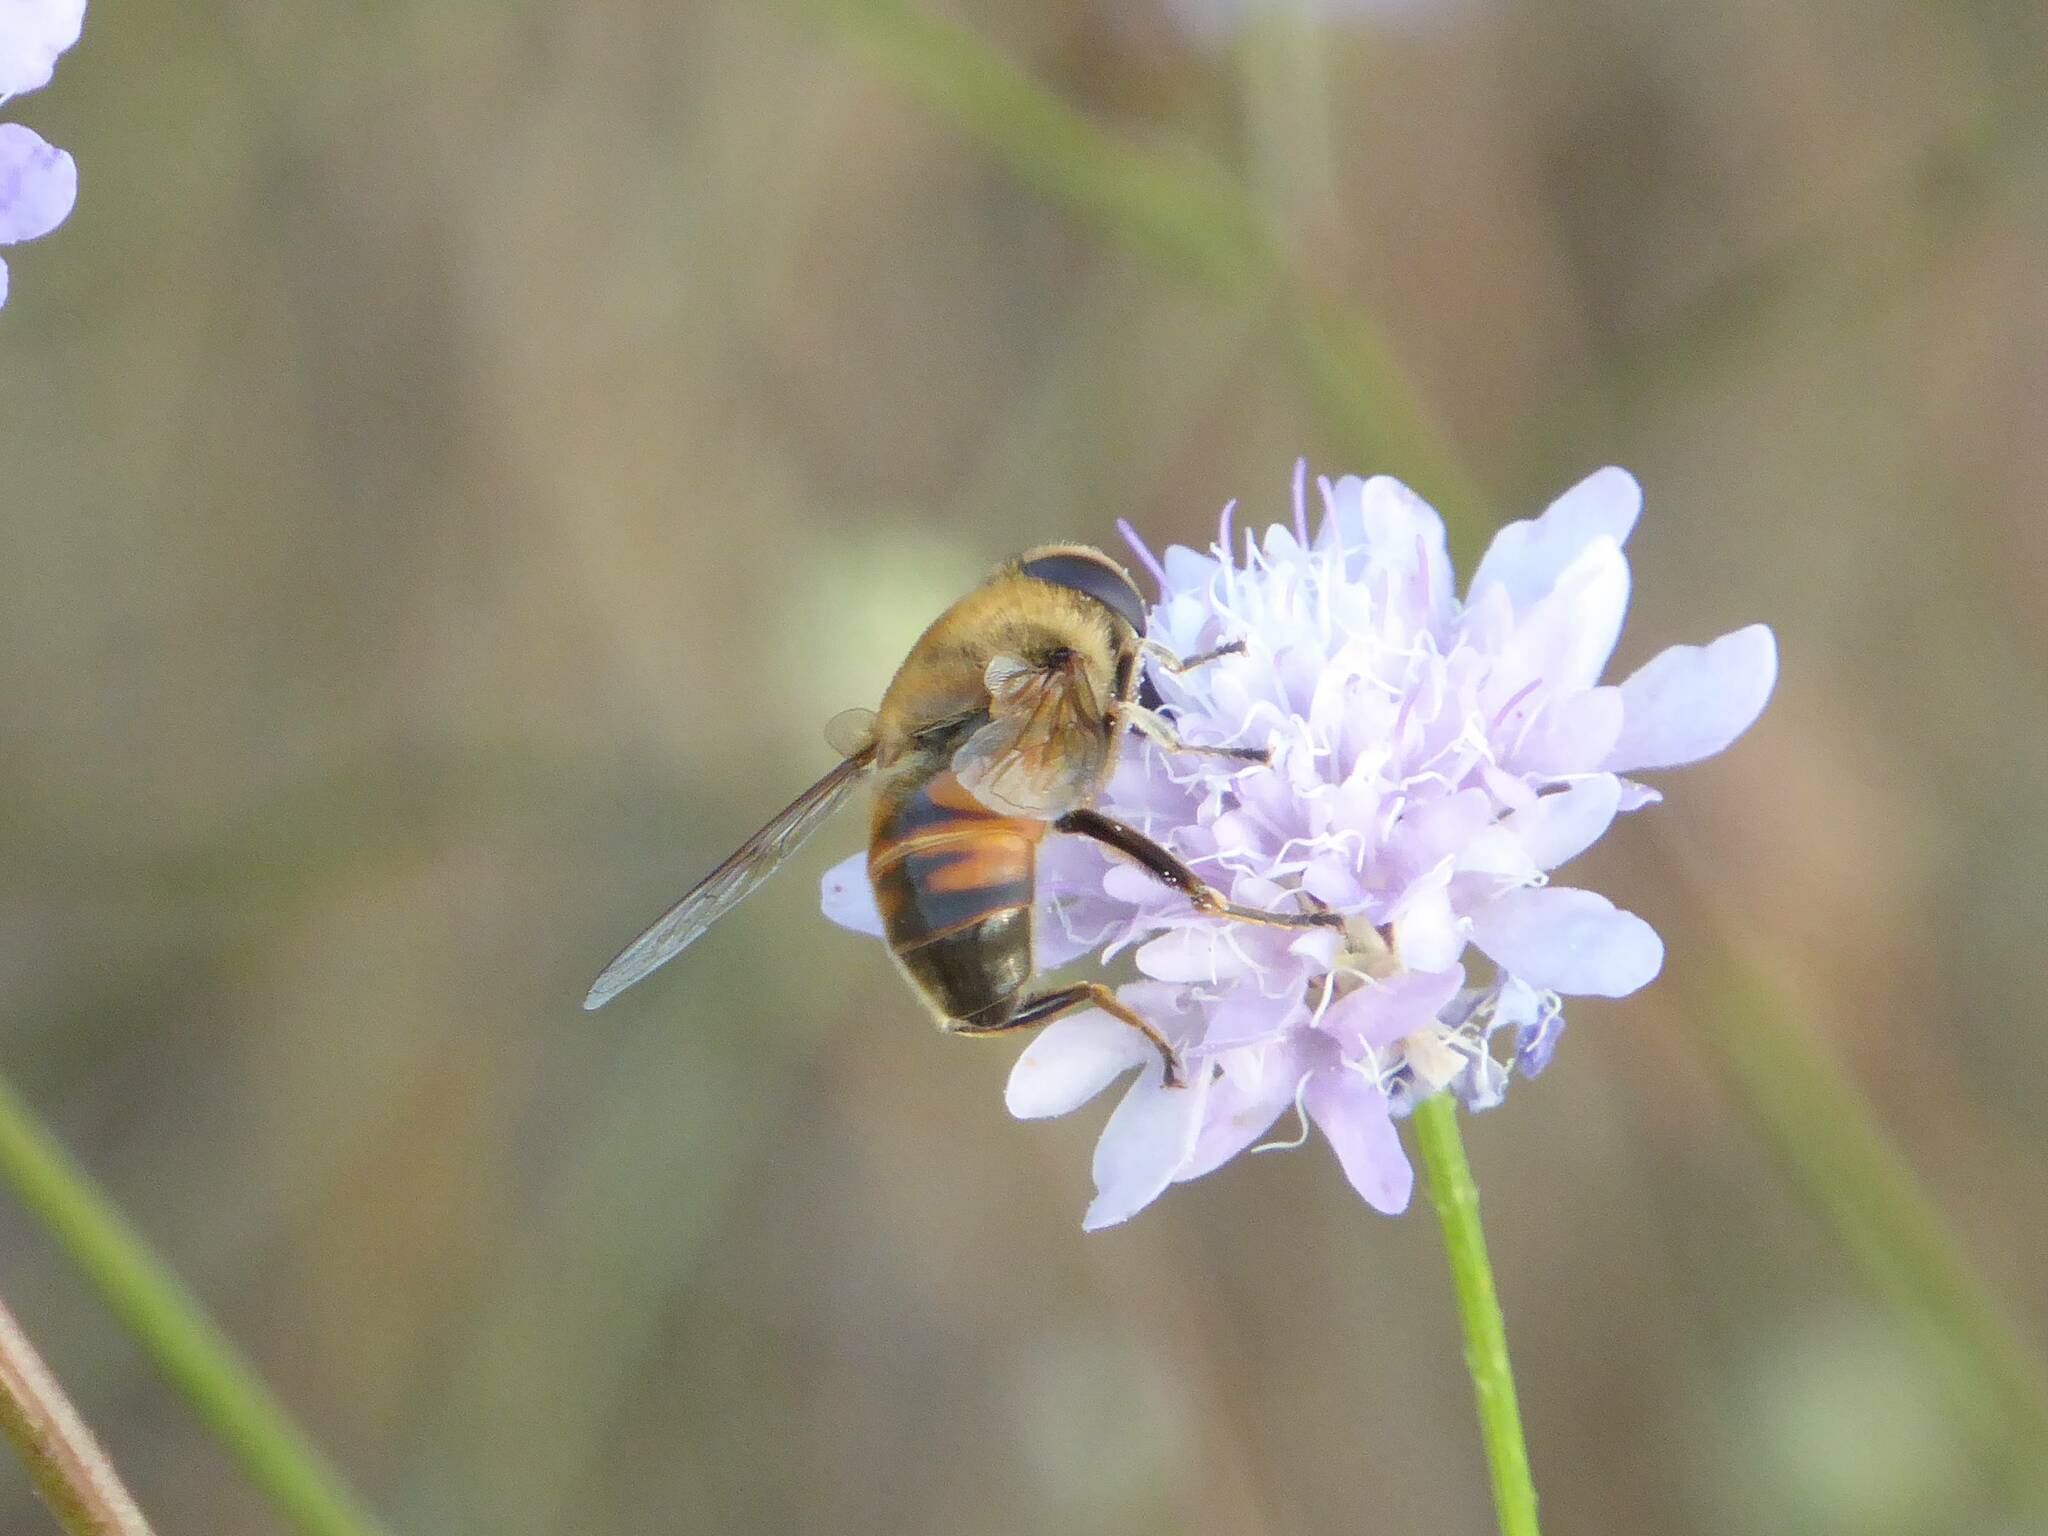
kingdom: Animalia
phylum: Arthropoda
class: Insecta
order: Diptera
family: Syrphidae
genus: Eristalis
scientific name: Eristalis tenax
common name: Drone fly
